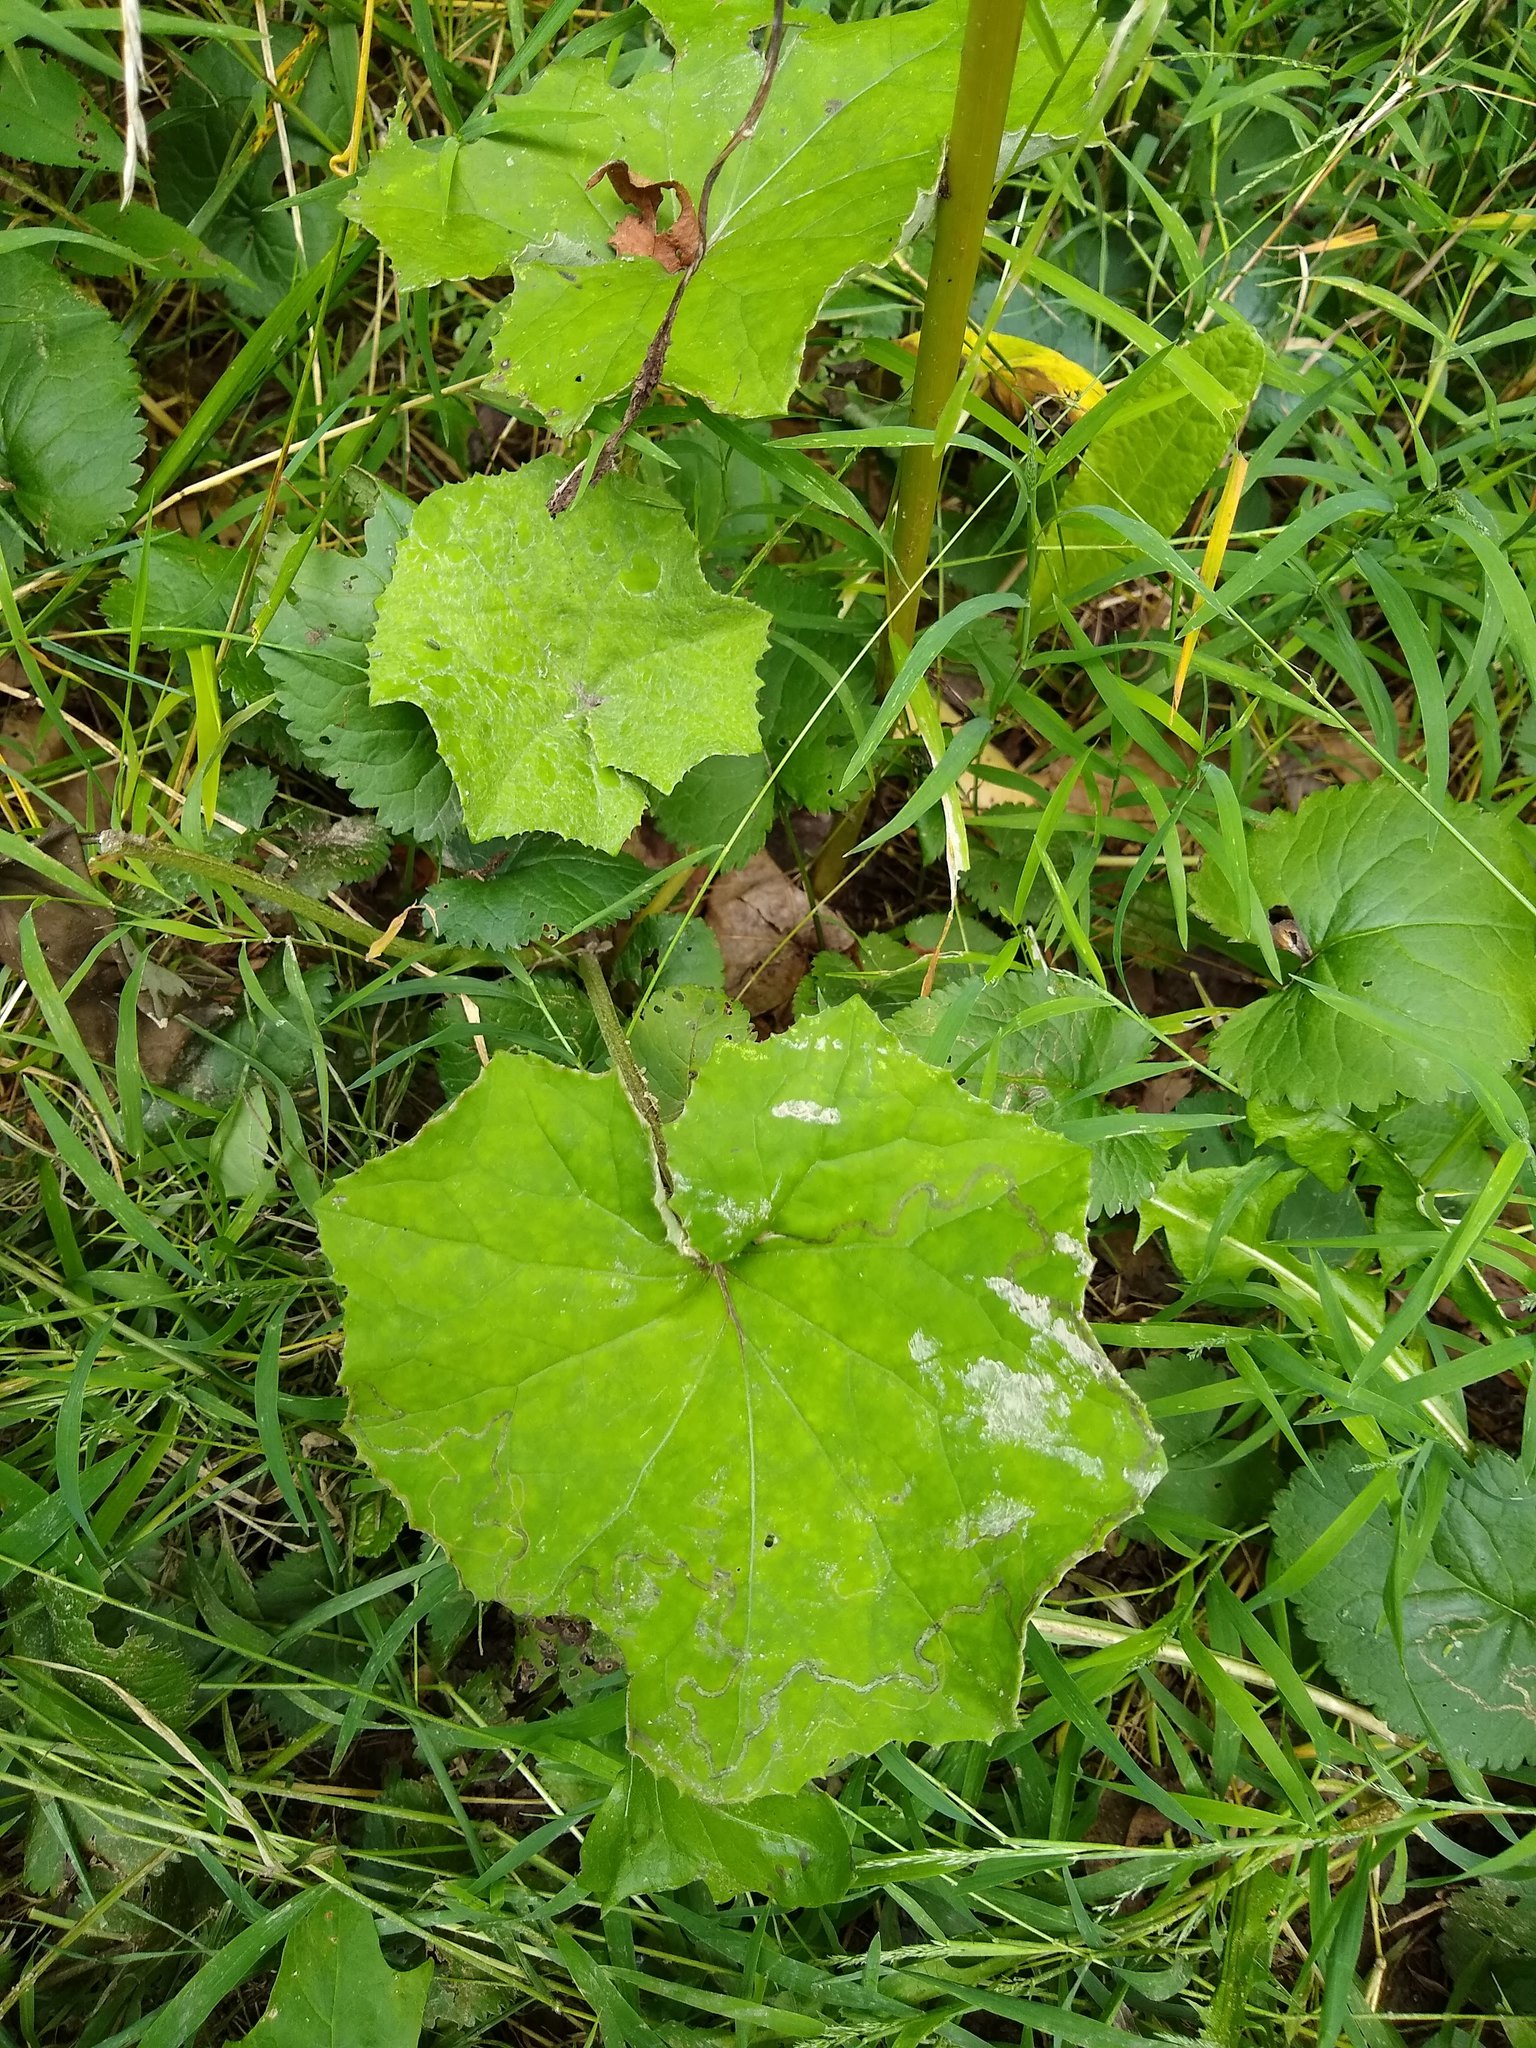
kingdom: Plantae
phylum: Tracheophyta
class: Magnoliopsida
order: Asterales
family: Asteraceae
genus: Tussilago
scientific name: Tussilago farfara
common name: Coltsfoot
